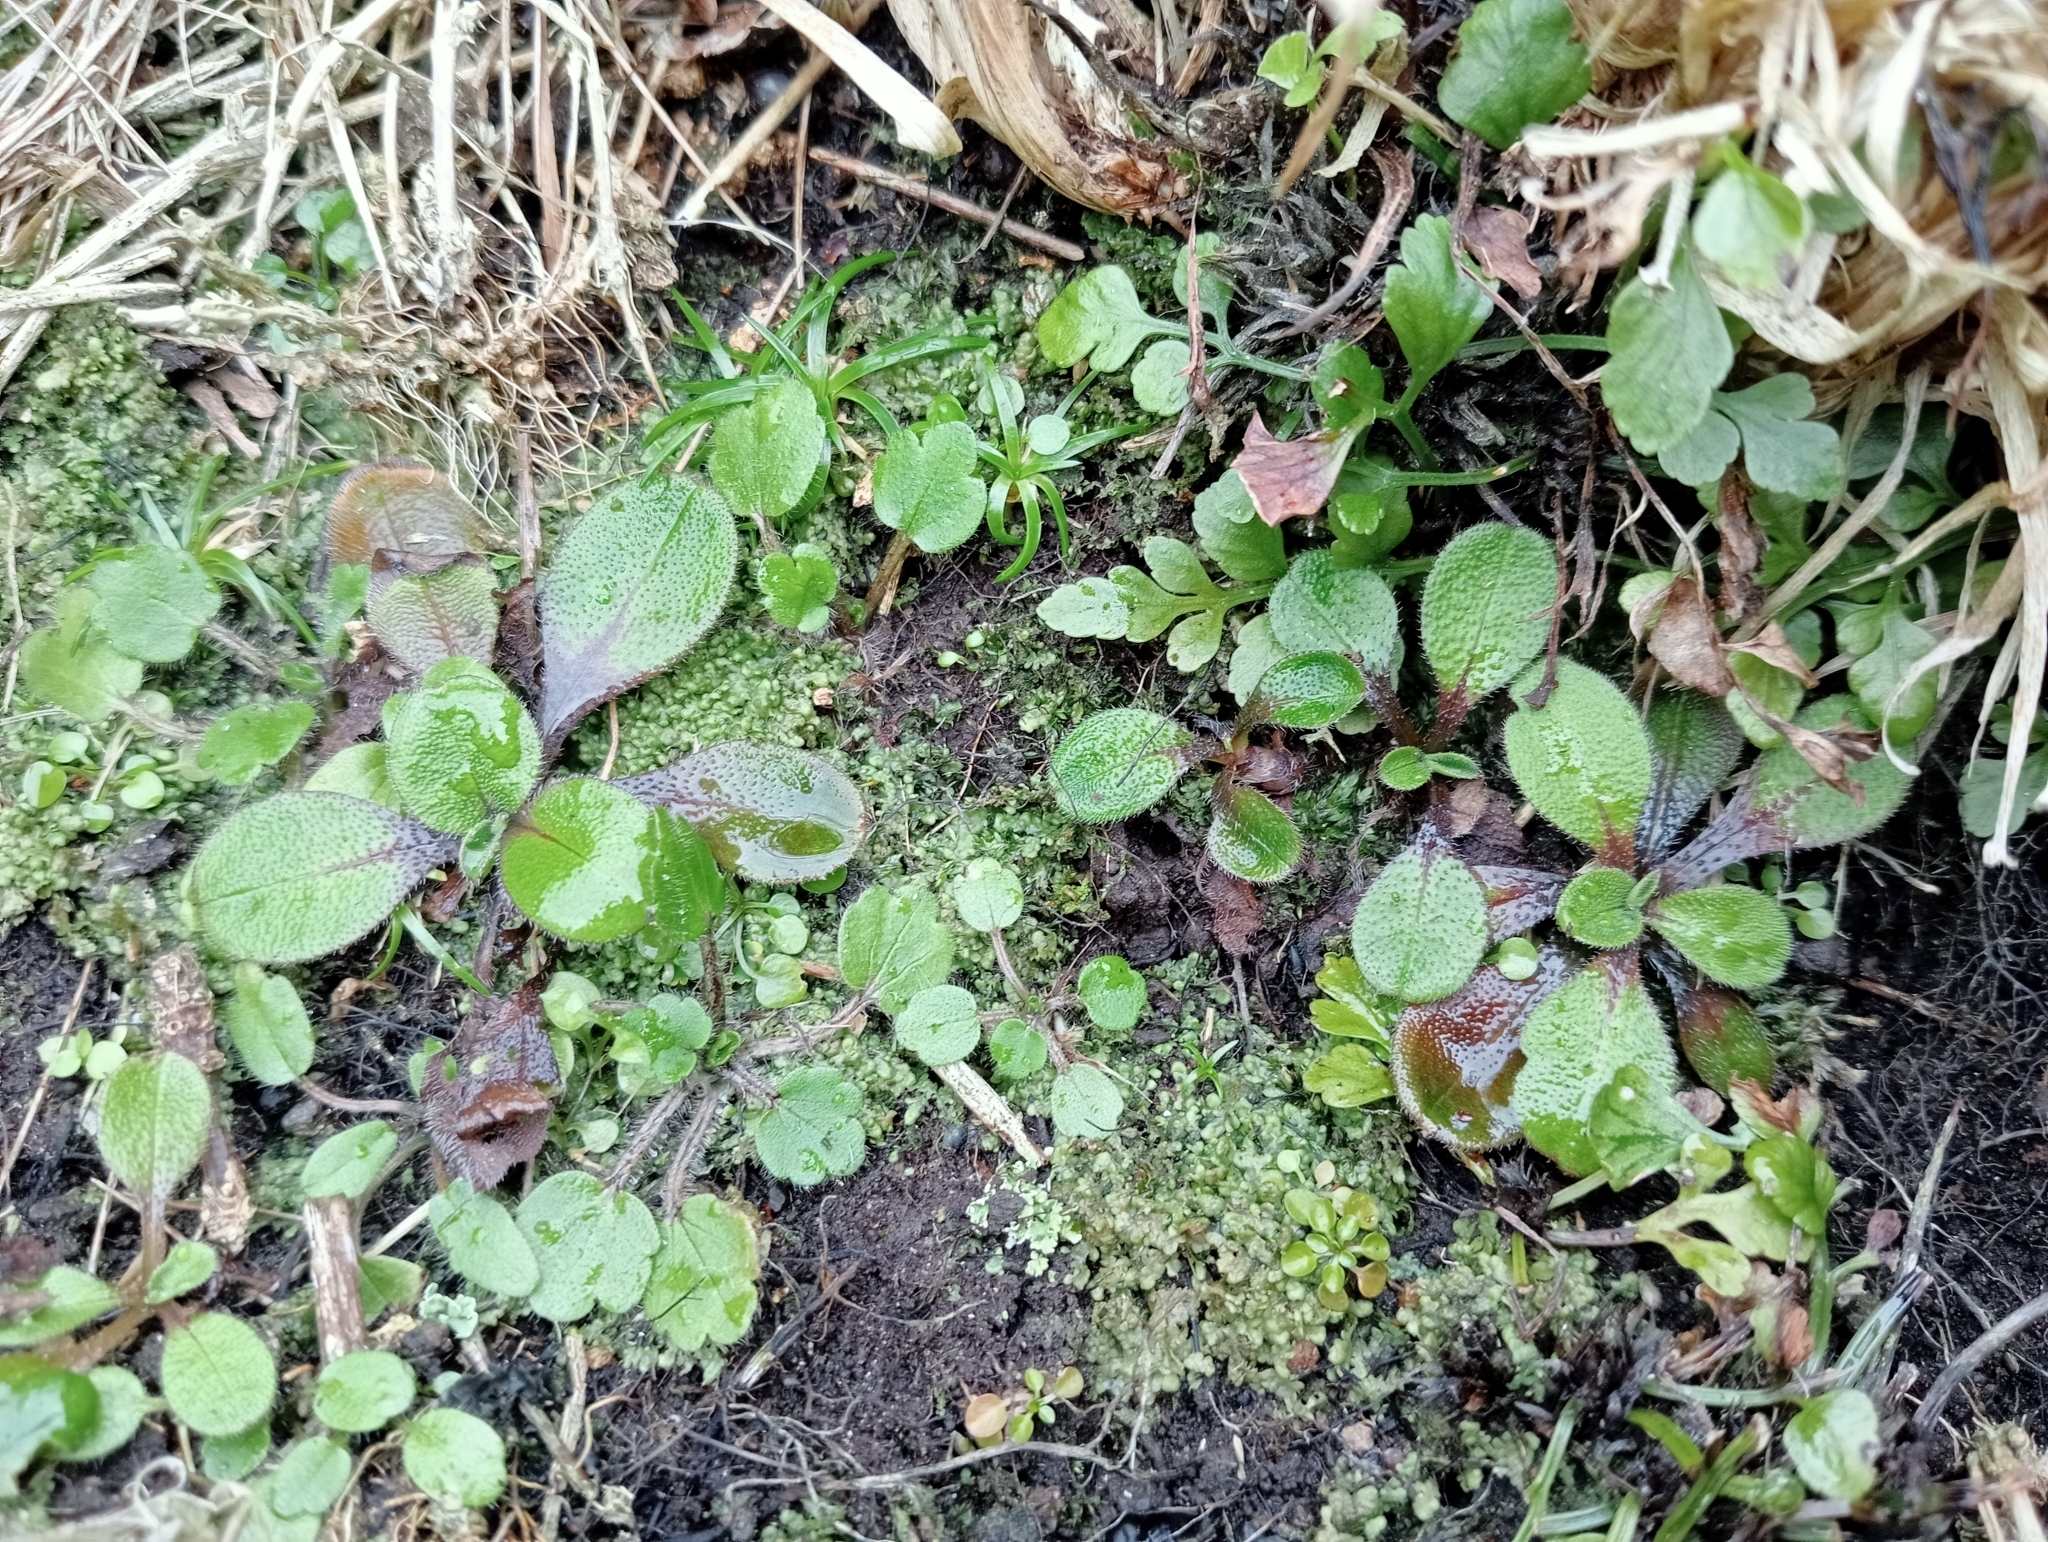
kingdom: Plantae
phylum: Tracheophyta
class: Magnoliopsida
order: Boraginales
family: Boraginaceae
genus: Myosotis
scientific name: Myosotis antarctica
